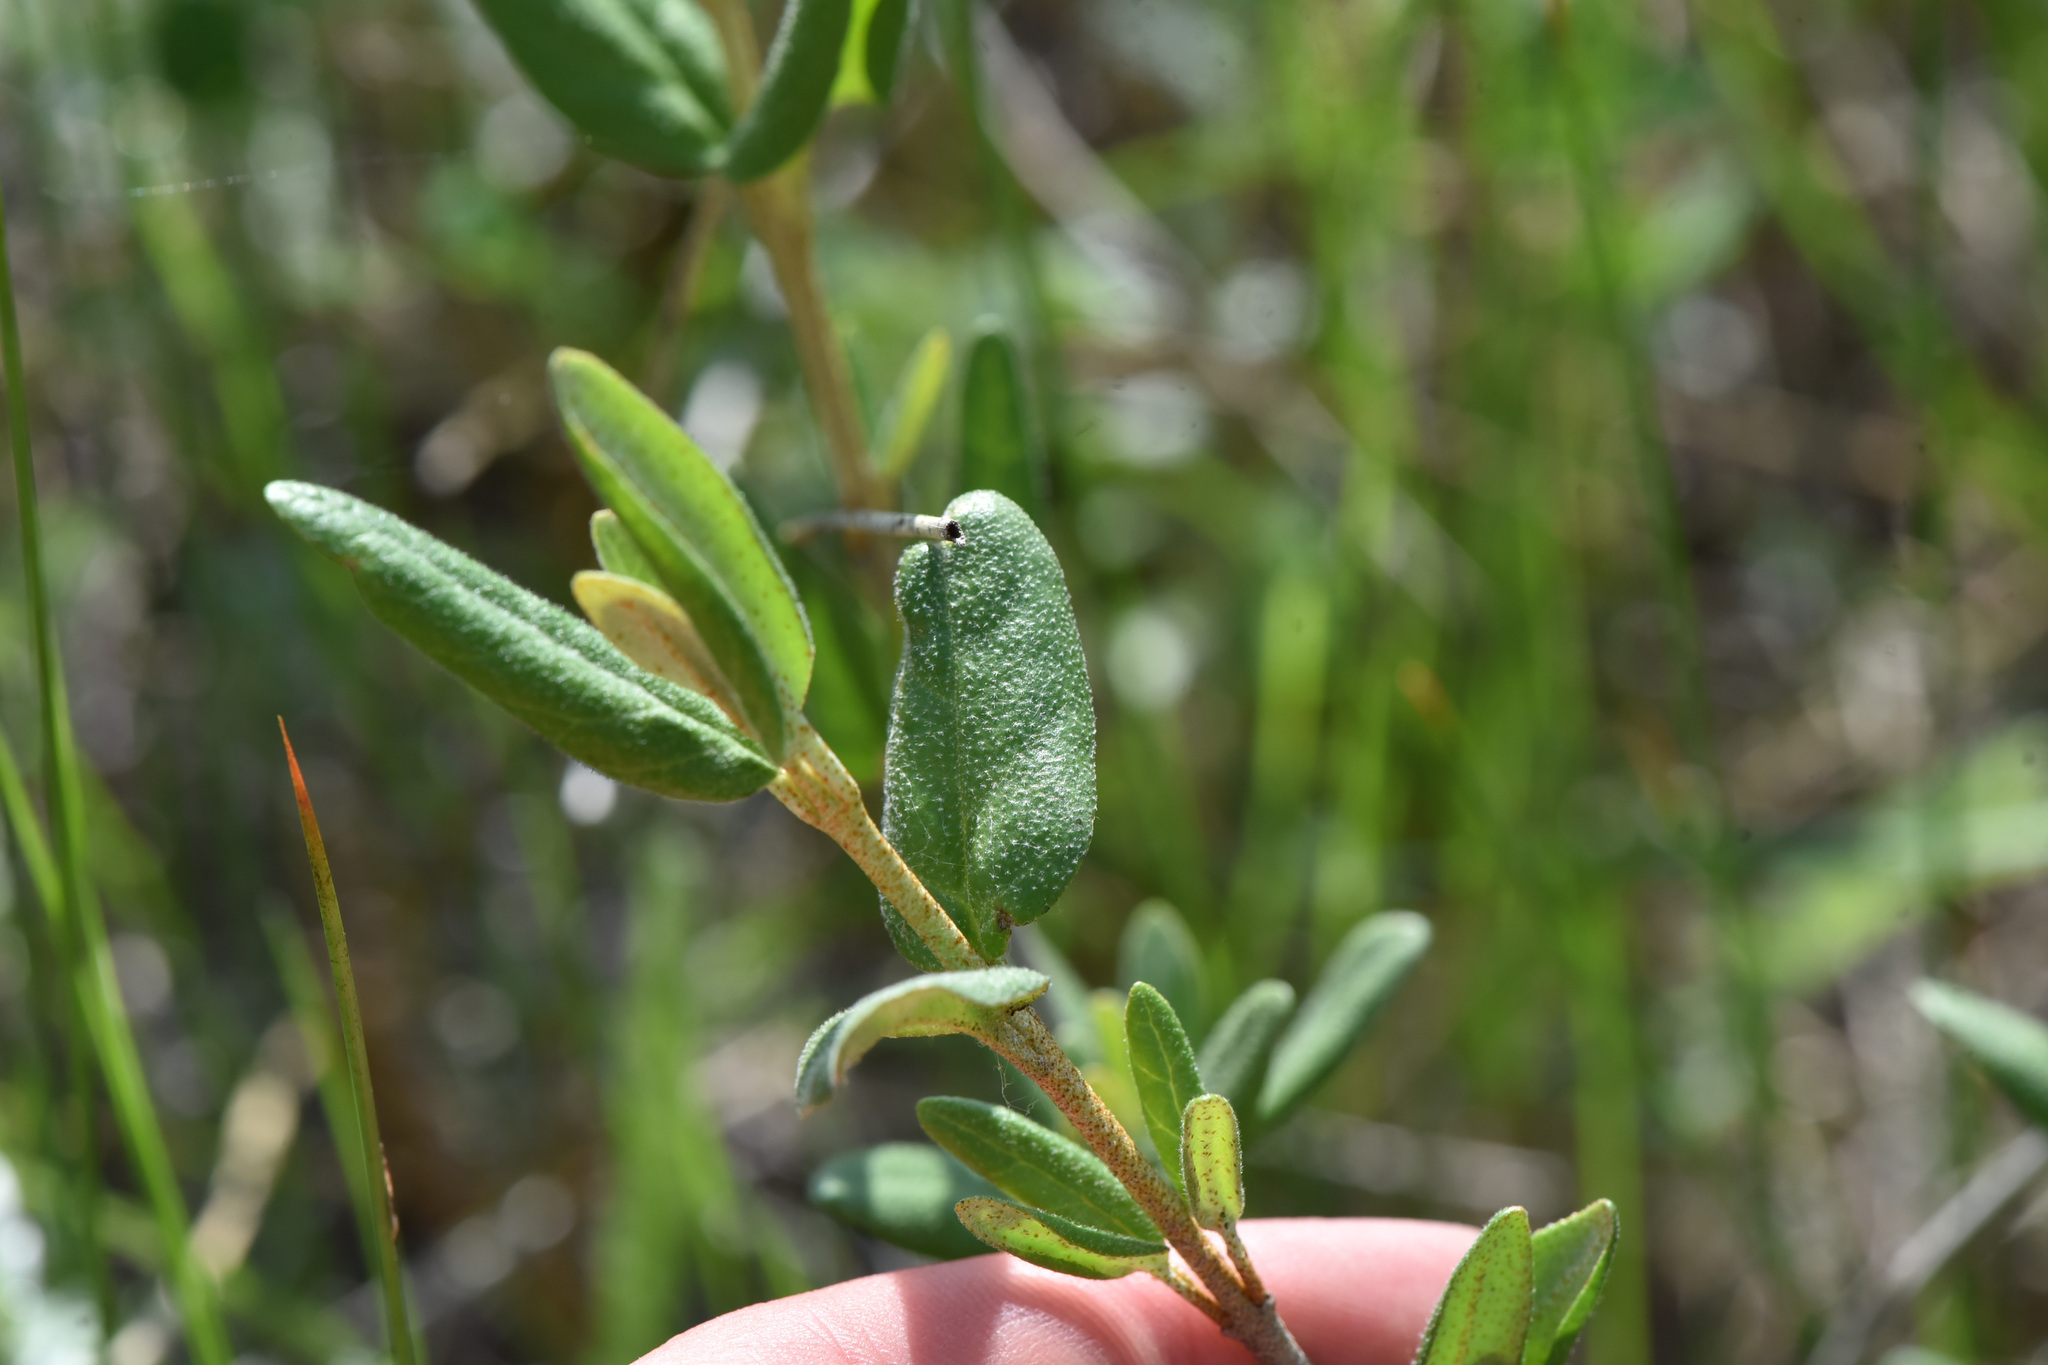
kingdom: Plantae
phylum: Tracheophyta
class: Magnoliopsida
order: Rosales
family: Elaeagnaceae
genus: Shepherdia
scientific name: Shepherdia canadensis
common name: Soapberry
